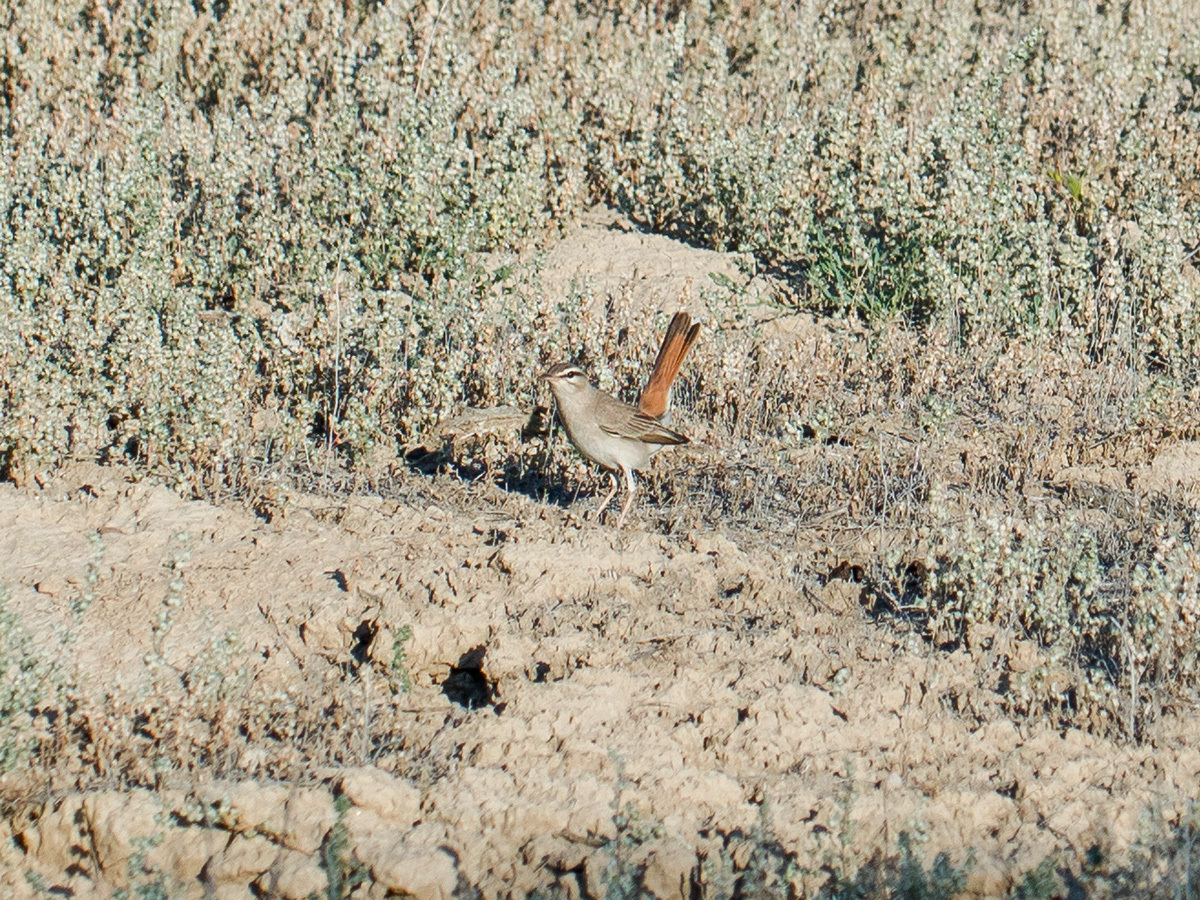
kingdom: Animalia
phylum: Chordata
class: Aves
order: Passeriformes
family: Muscicapidae
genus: Erythropygia
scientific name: Erythropygia galactotes
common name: Rufous-tailed scrub robin
